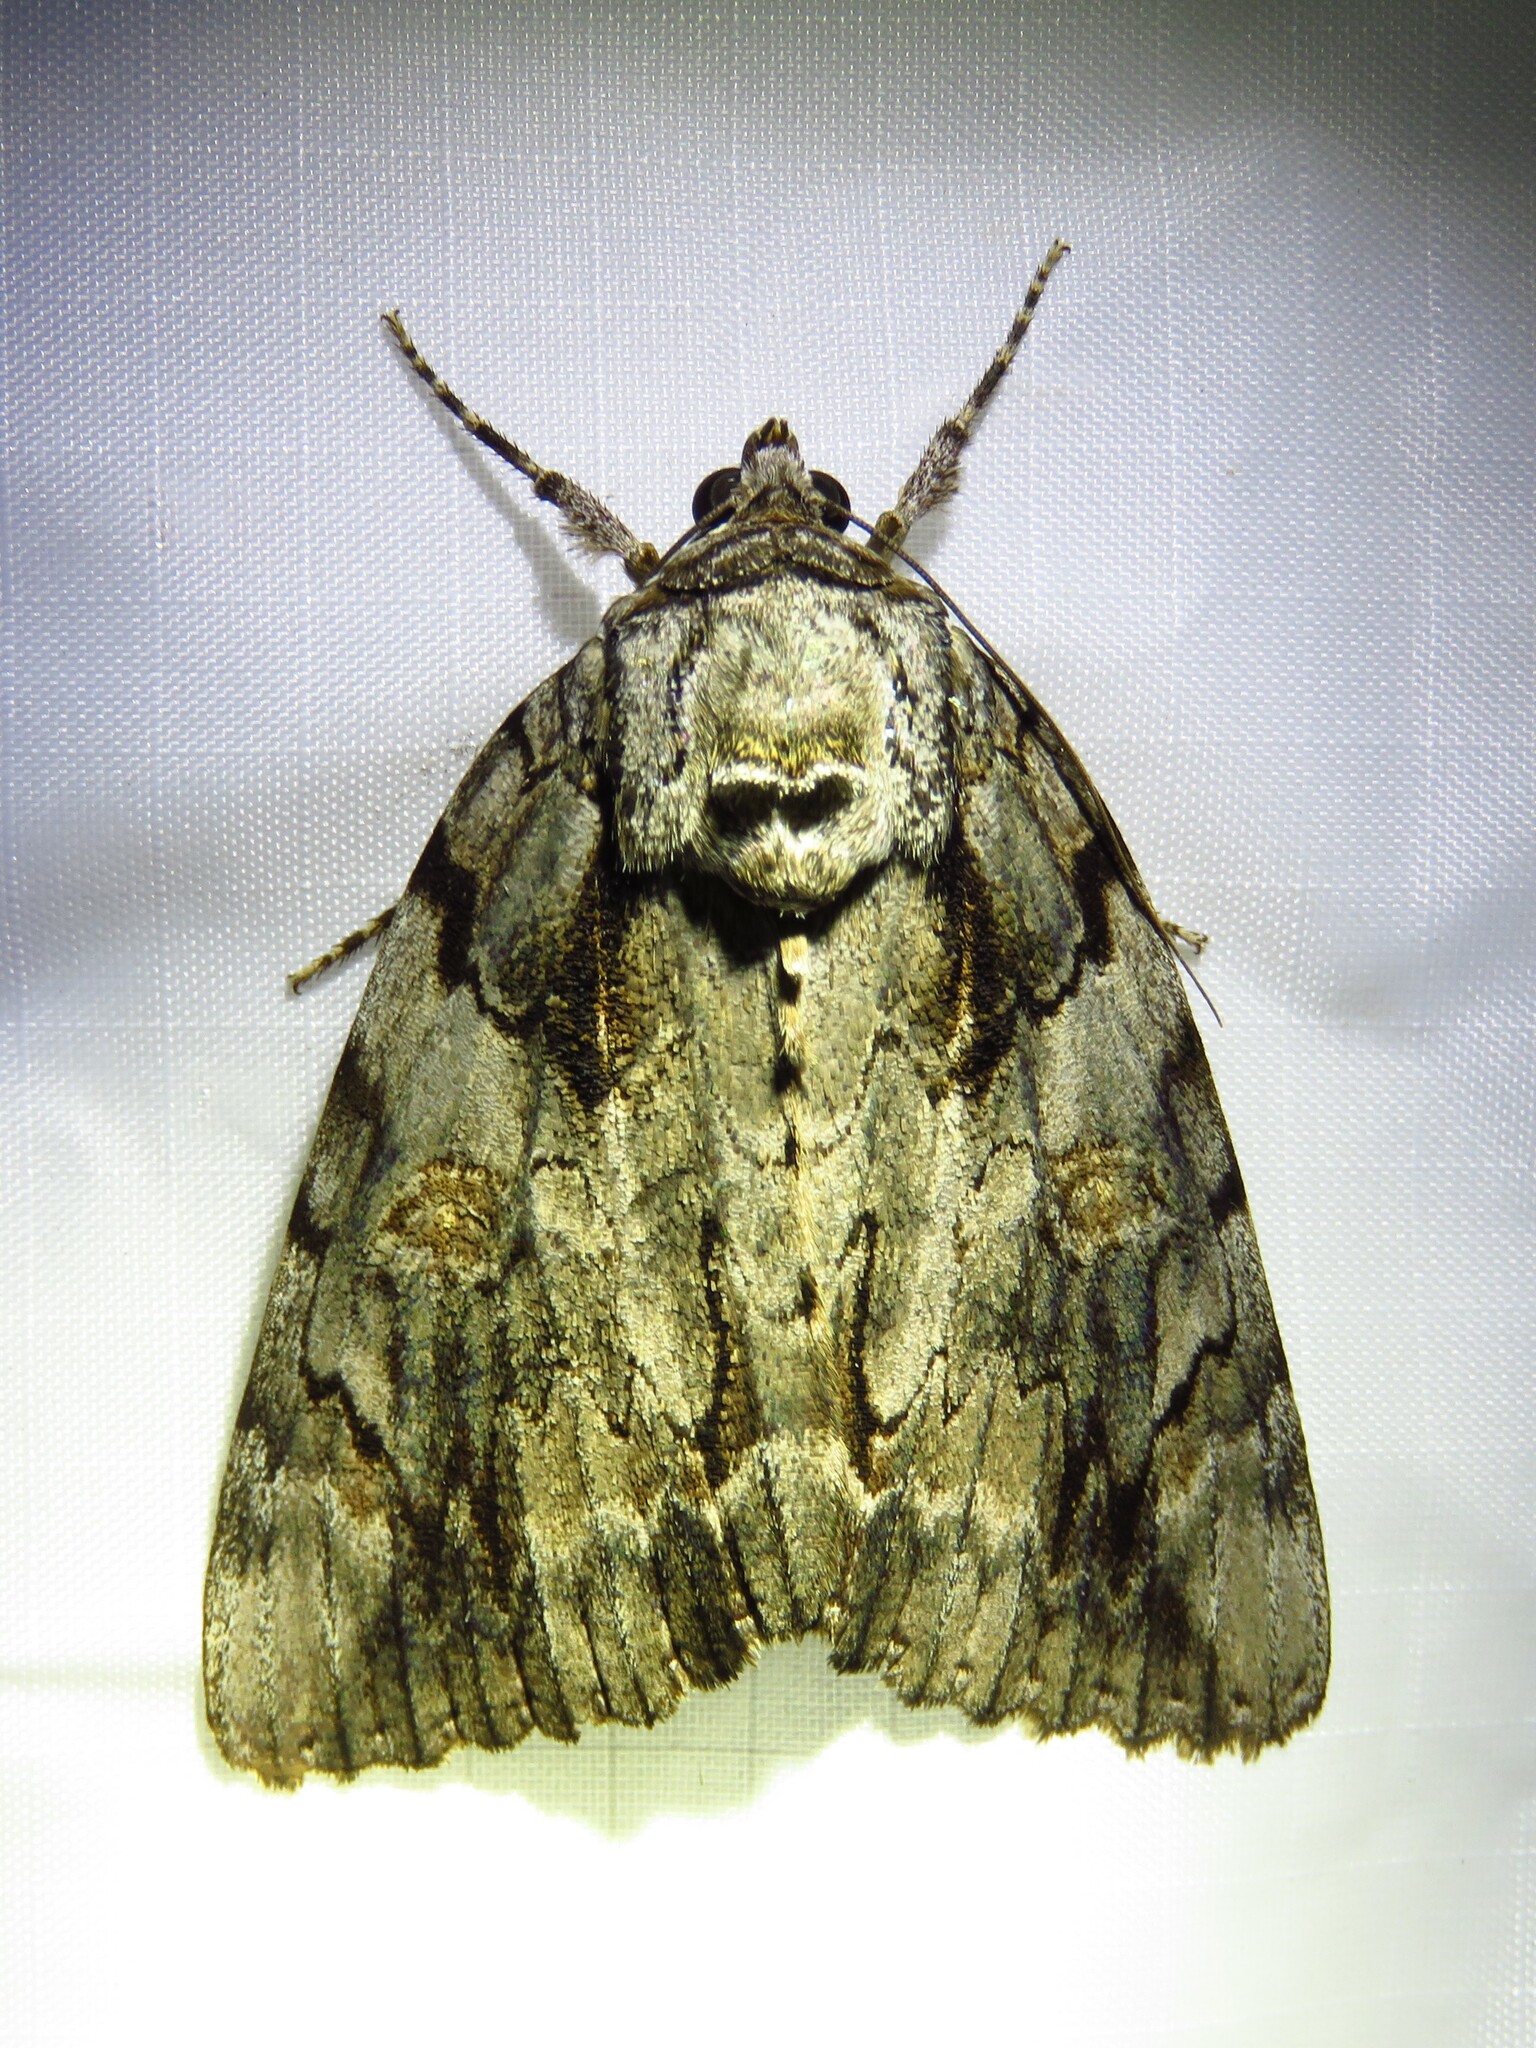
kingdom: Animalia
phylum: Arthropoda
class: Insecta
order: Lepidoptera
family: Erebidae
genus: Catocala
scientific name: Catocala neogama
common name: Bride underwing
